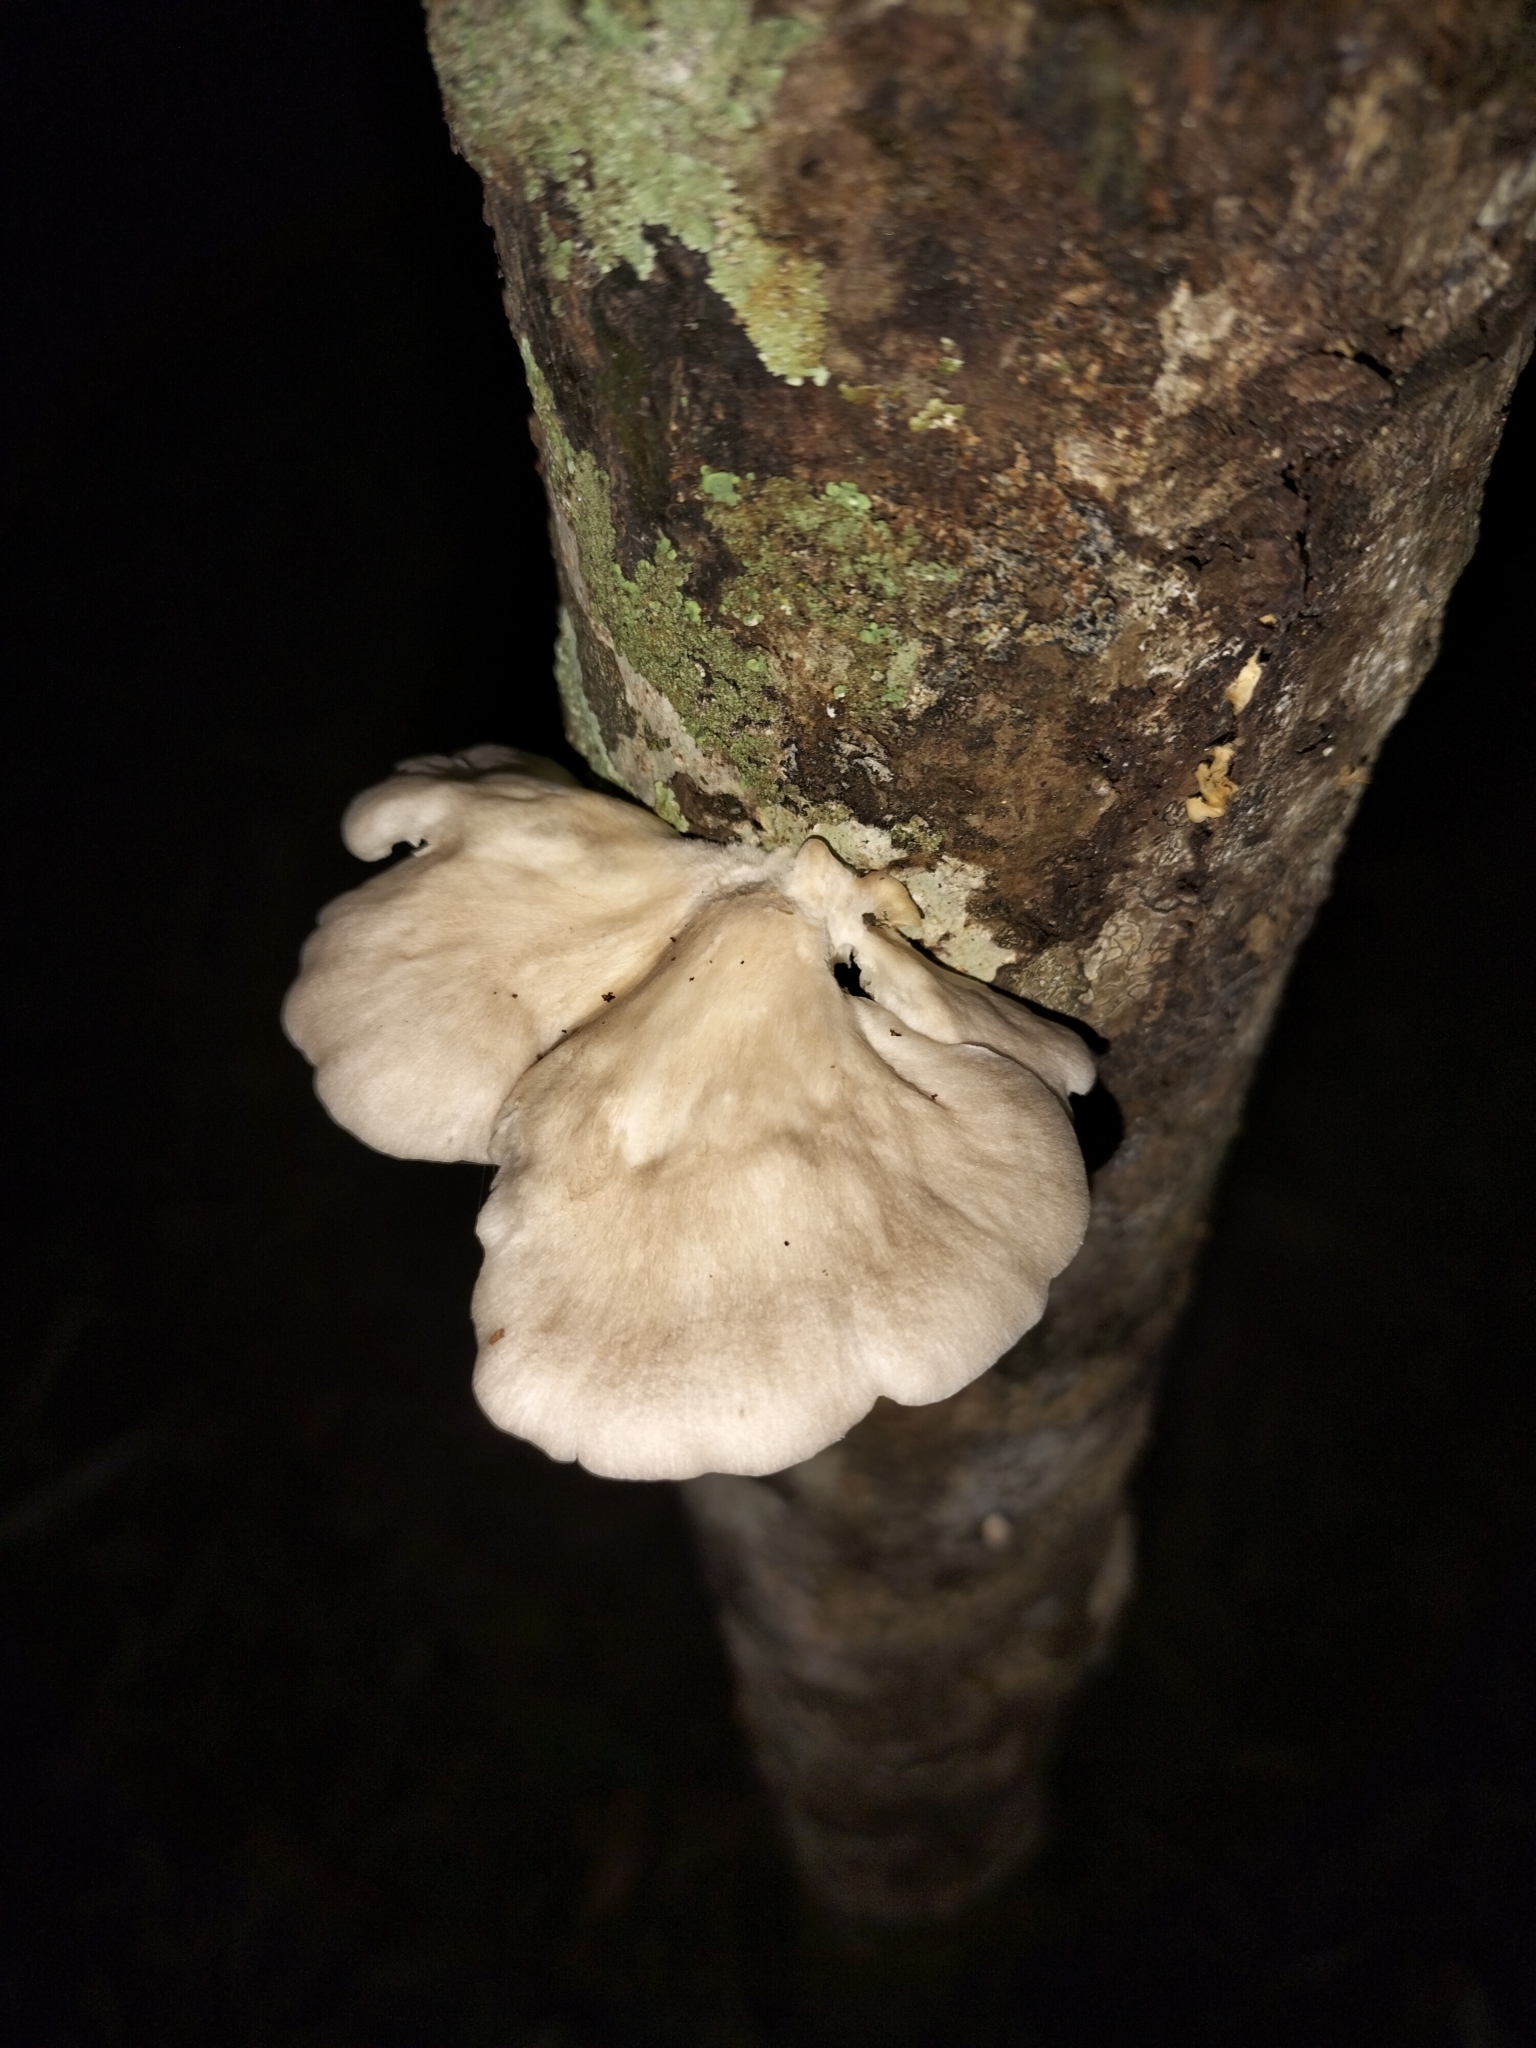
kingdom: Fungi
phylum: Basidiomycota
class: Agaricomycetes
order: Agaricales
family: Pleurotaceae
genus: Pleurotus
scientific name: Pleurotus djamor
